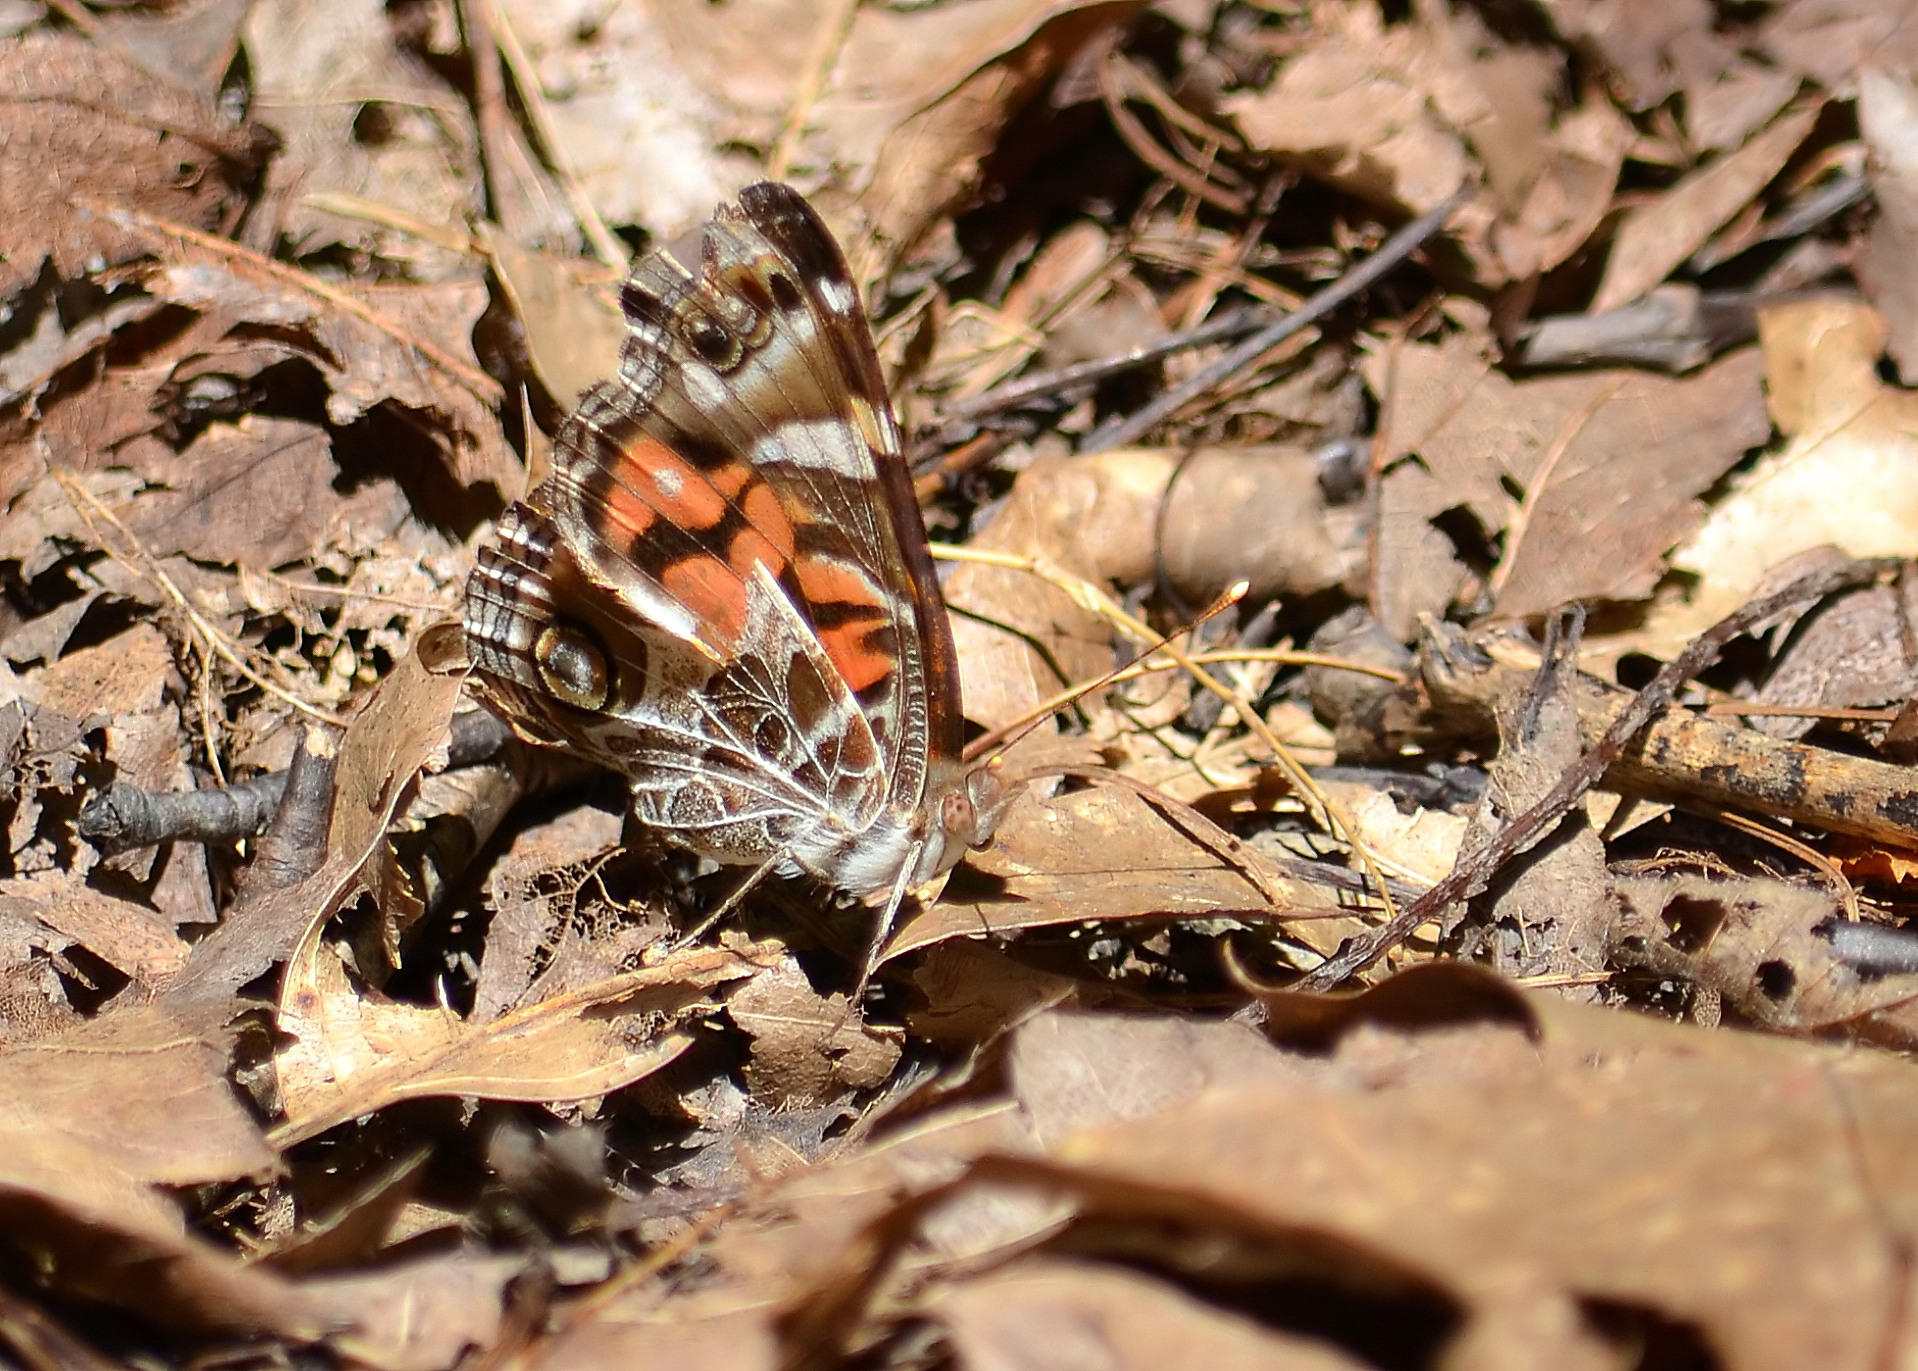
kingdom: Animalia
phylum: Arthropoda
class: Insecta
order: Lepidoptera
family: Nymphalidae
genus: Vanessa
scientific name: Vanessa virginiensis
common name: American lady
